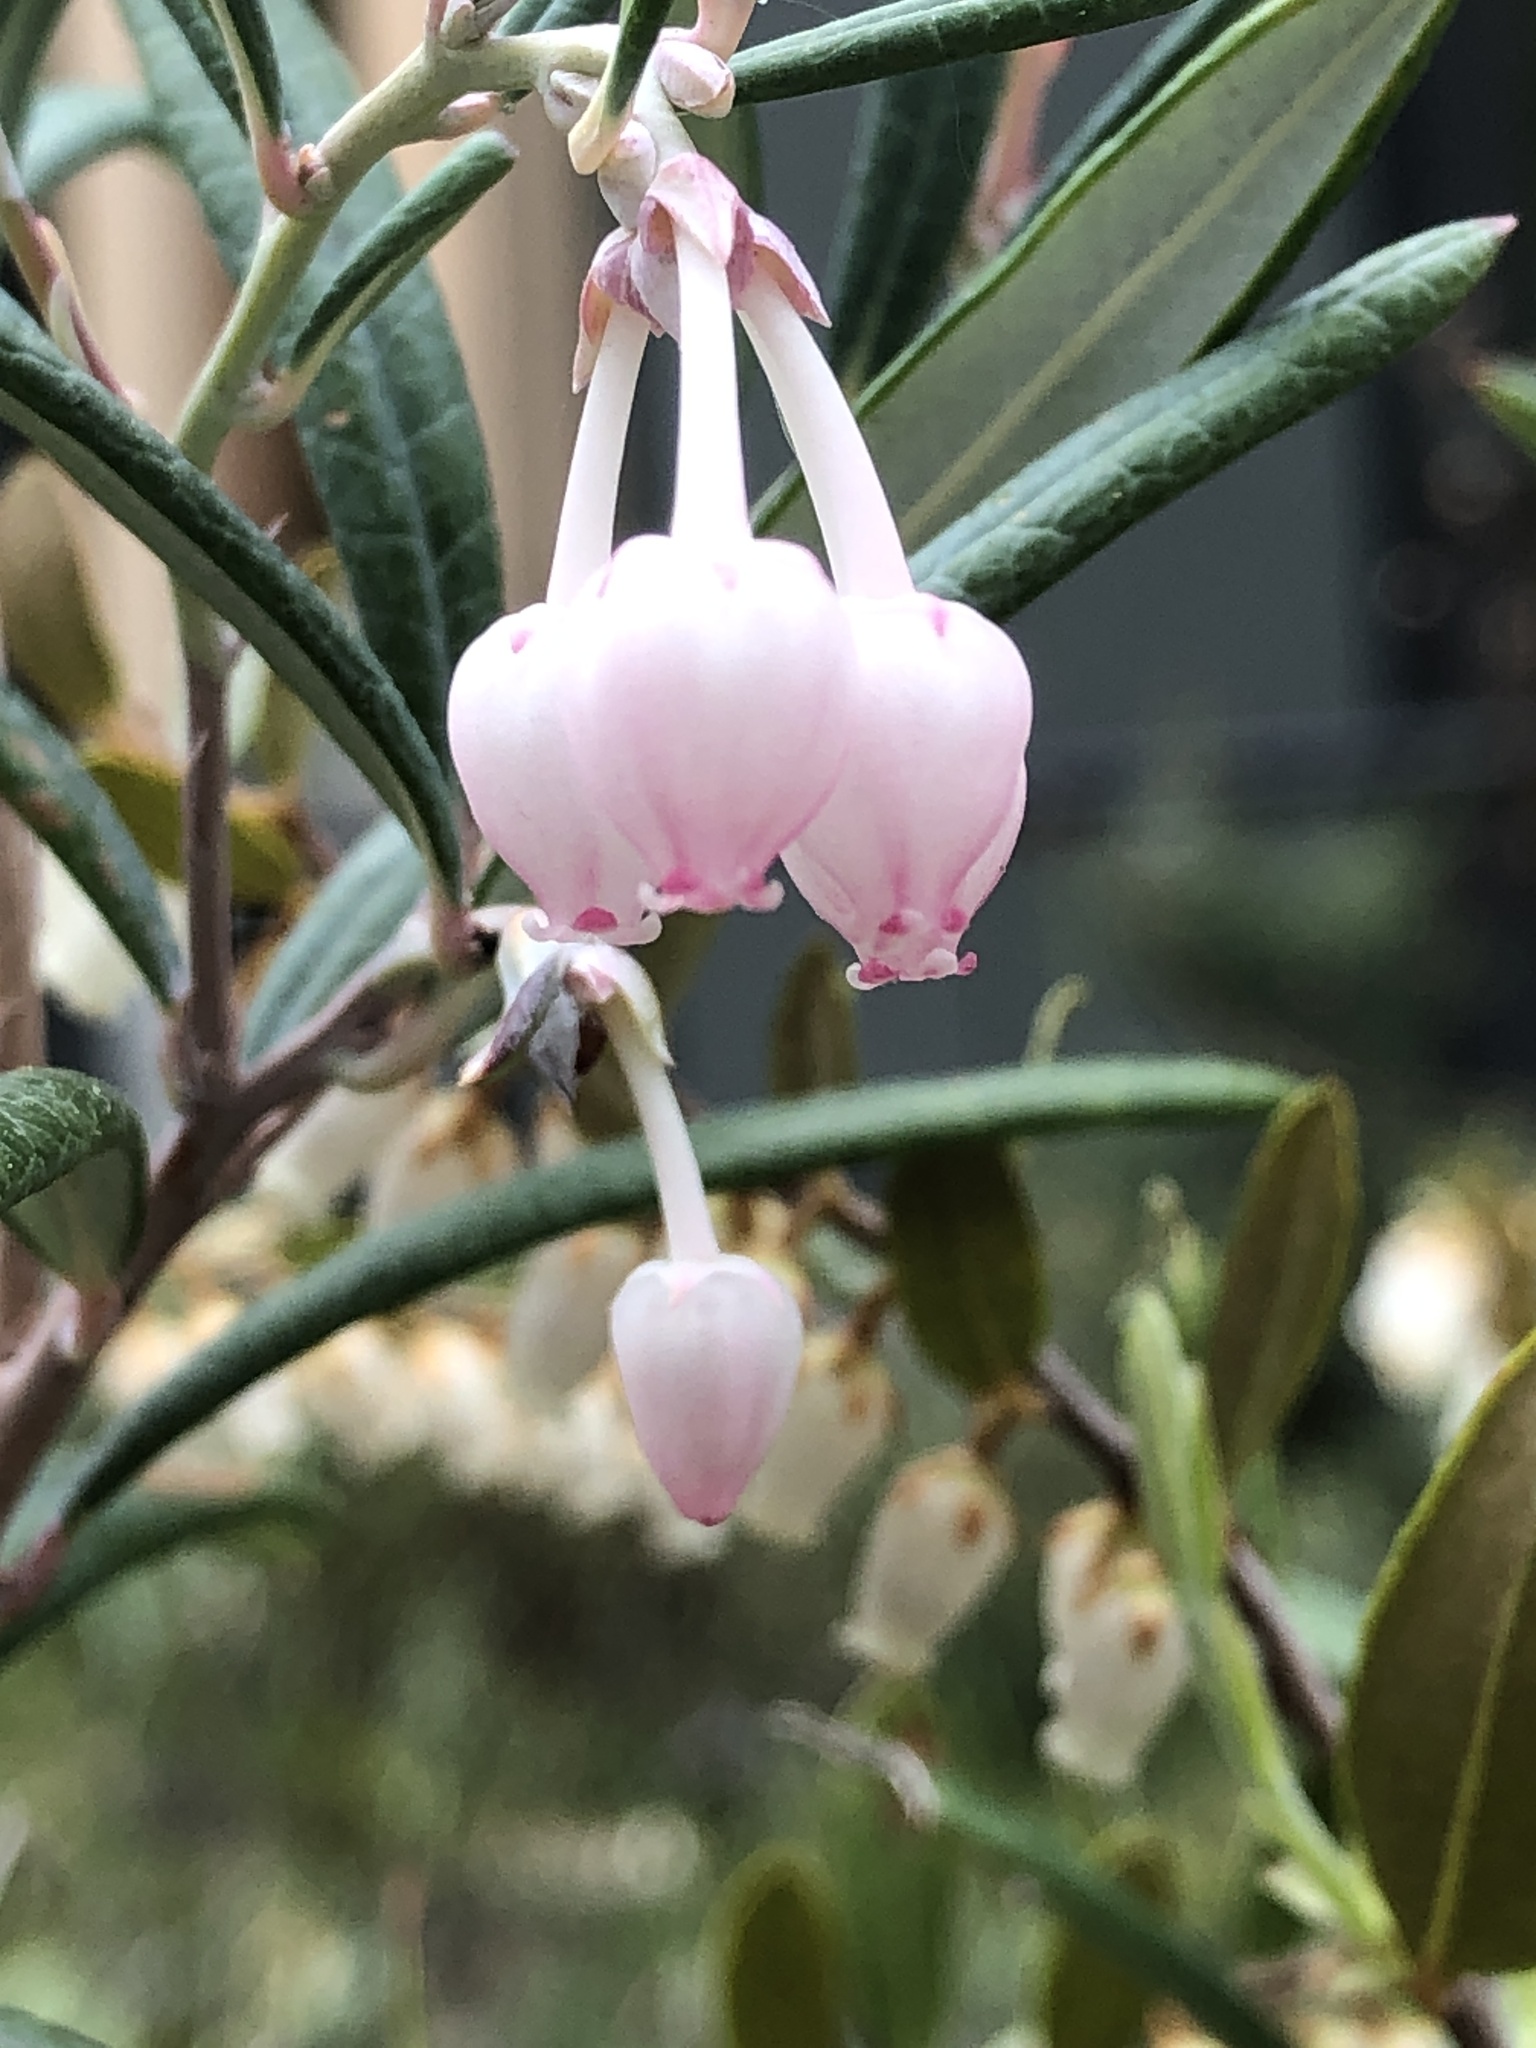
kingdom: Plantae
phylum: Tracheophyta
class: Magnoliopsida
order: Ericales
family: Ericaceae
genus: Andromeda
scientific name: Andromeda polifolia
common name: Bog-rosemary
